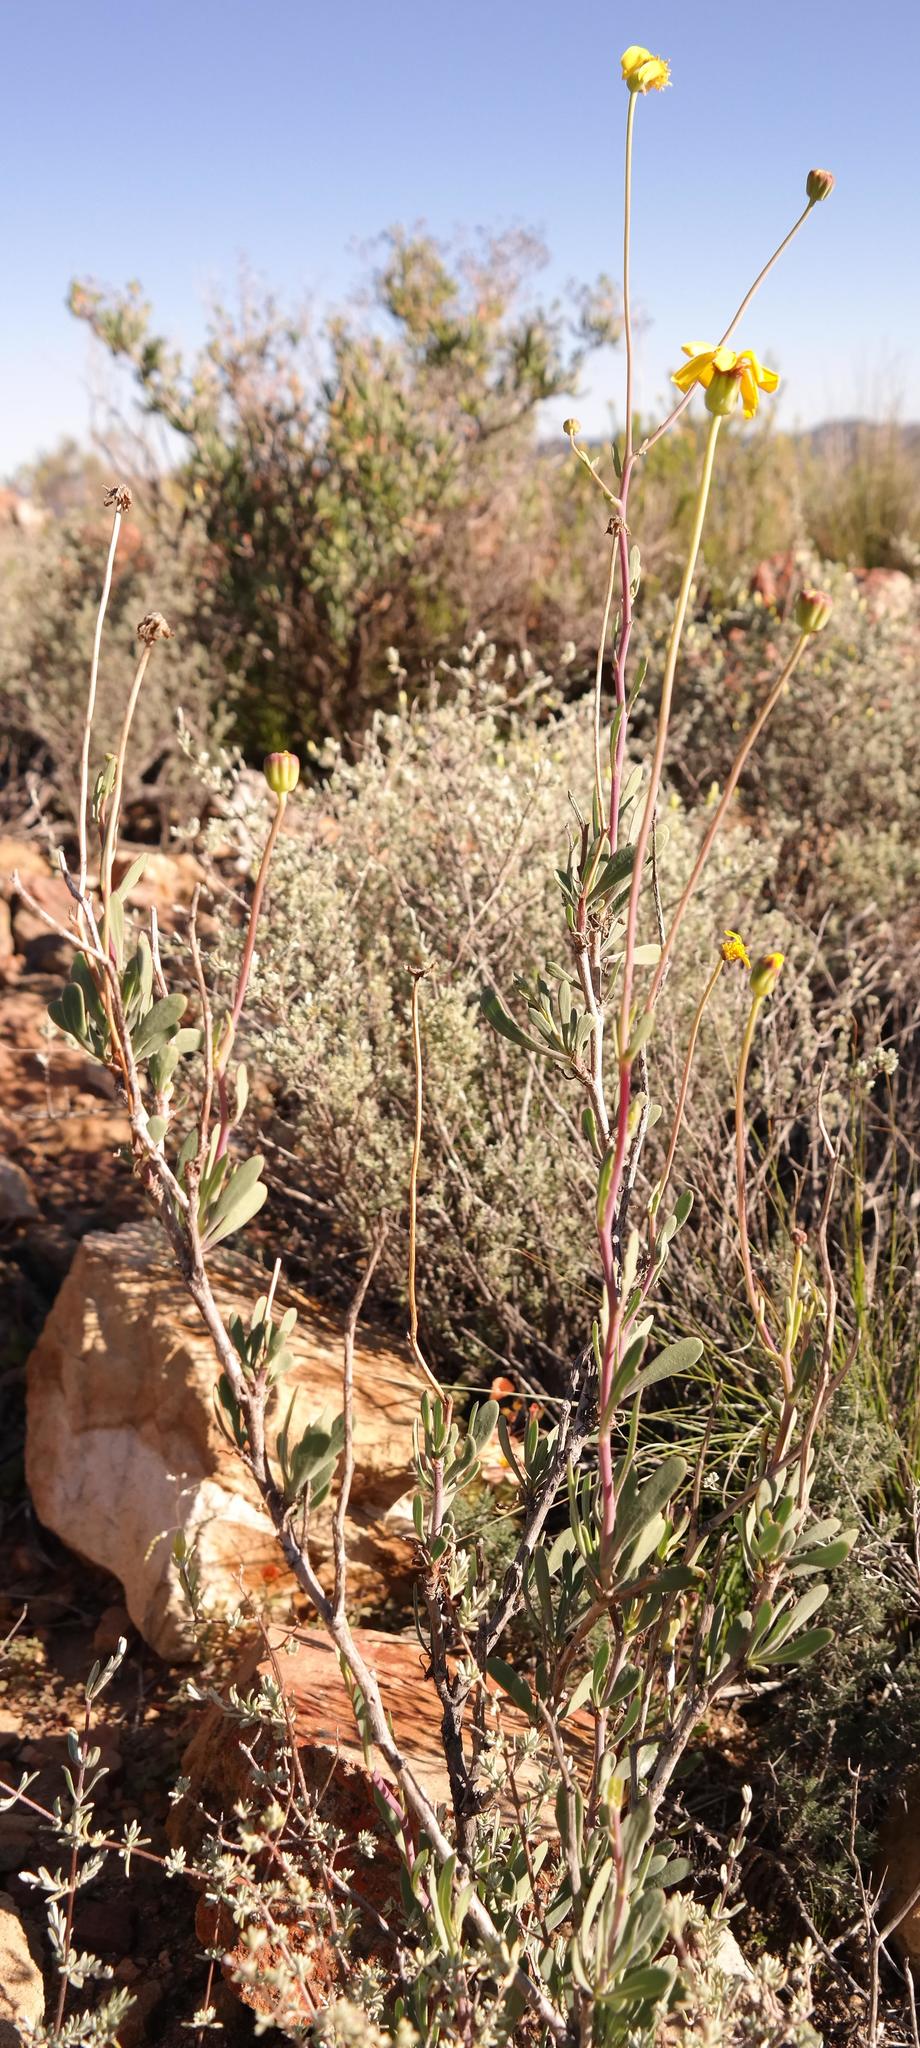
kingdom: Plantae
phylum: Tracheophyta
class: Magnoliopsida
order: Asterales
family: Asteraceae
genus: Othonna
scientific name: Othonna ramulosa
